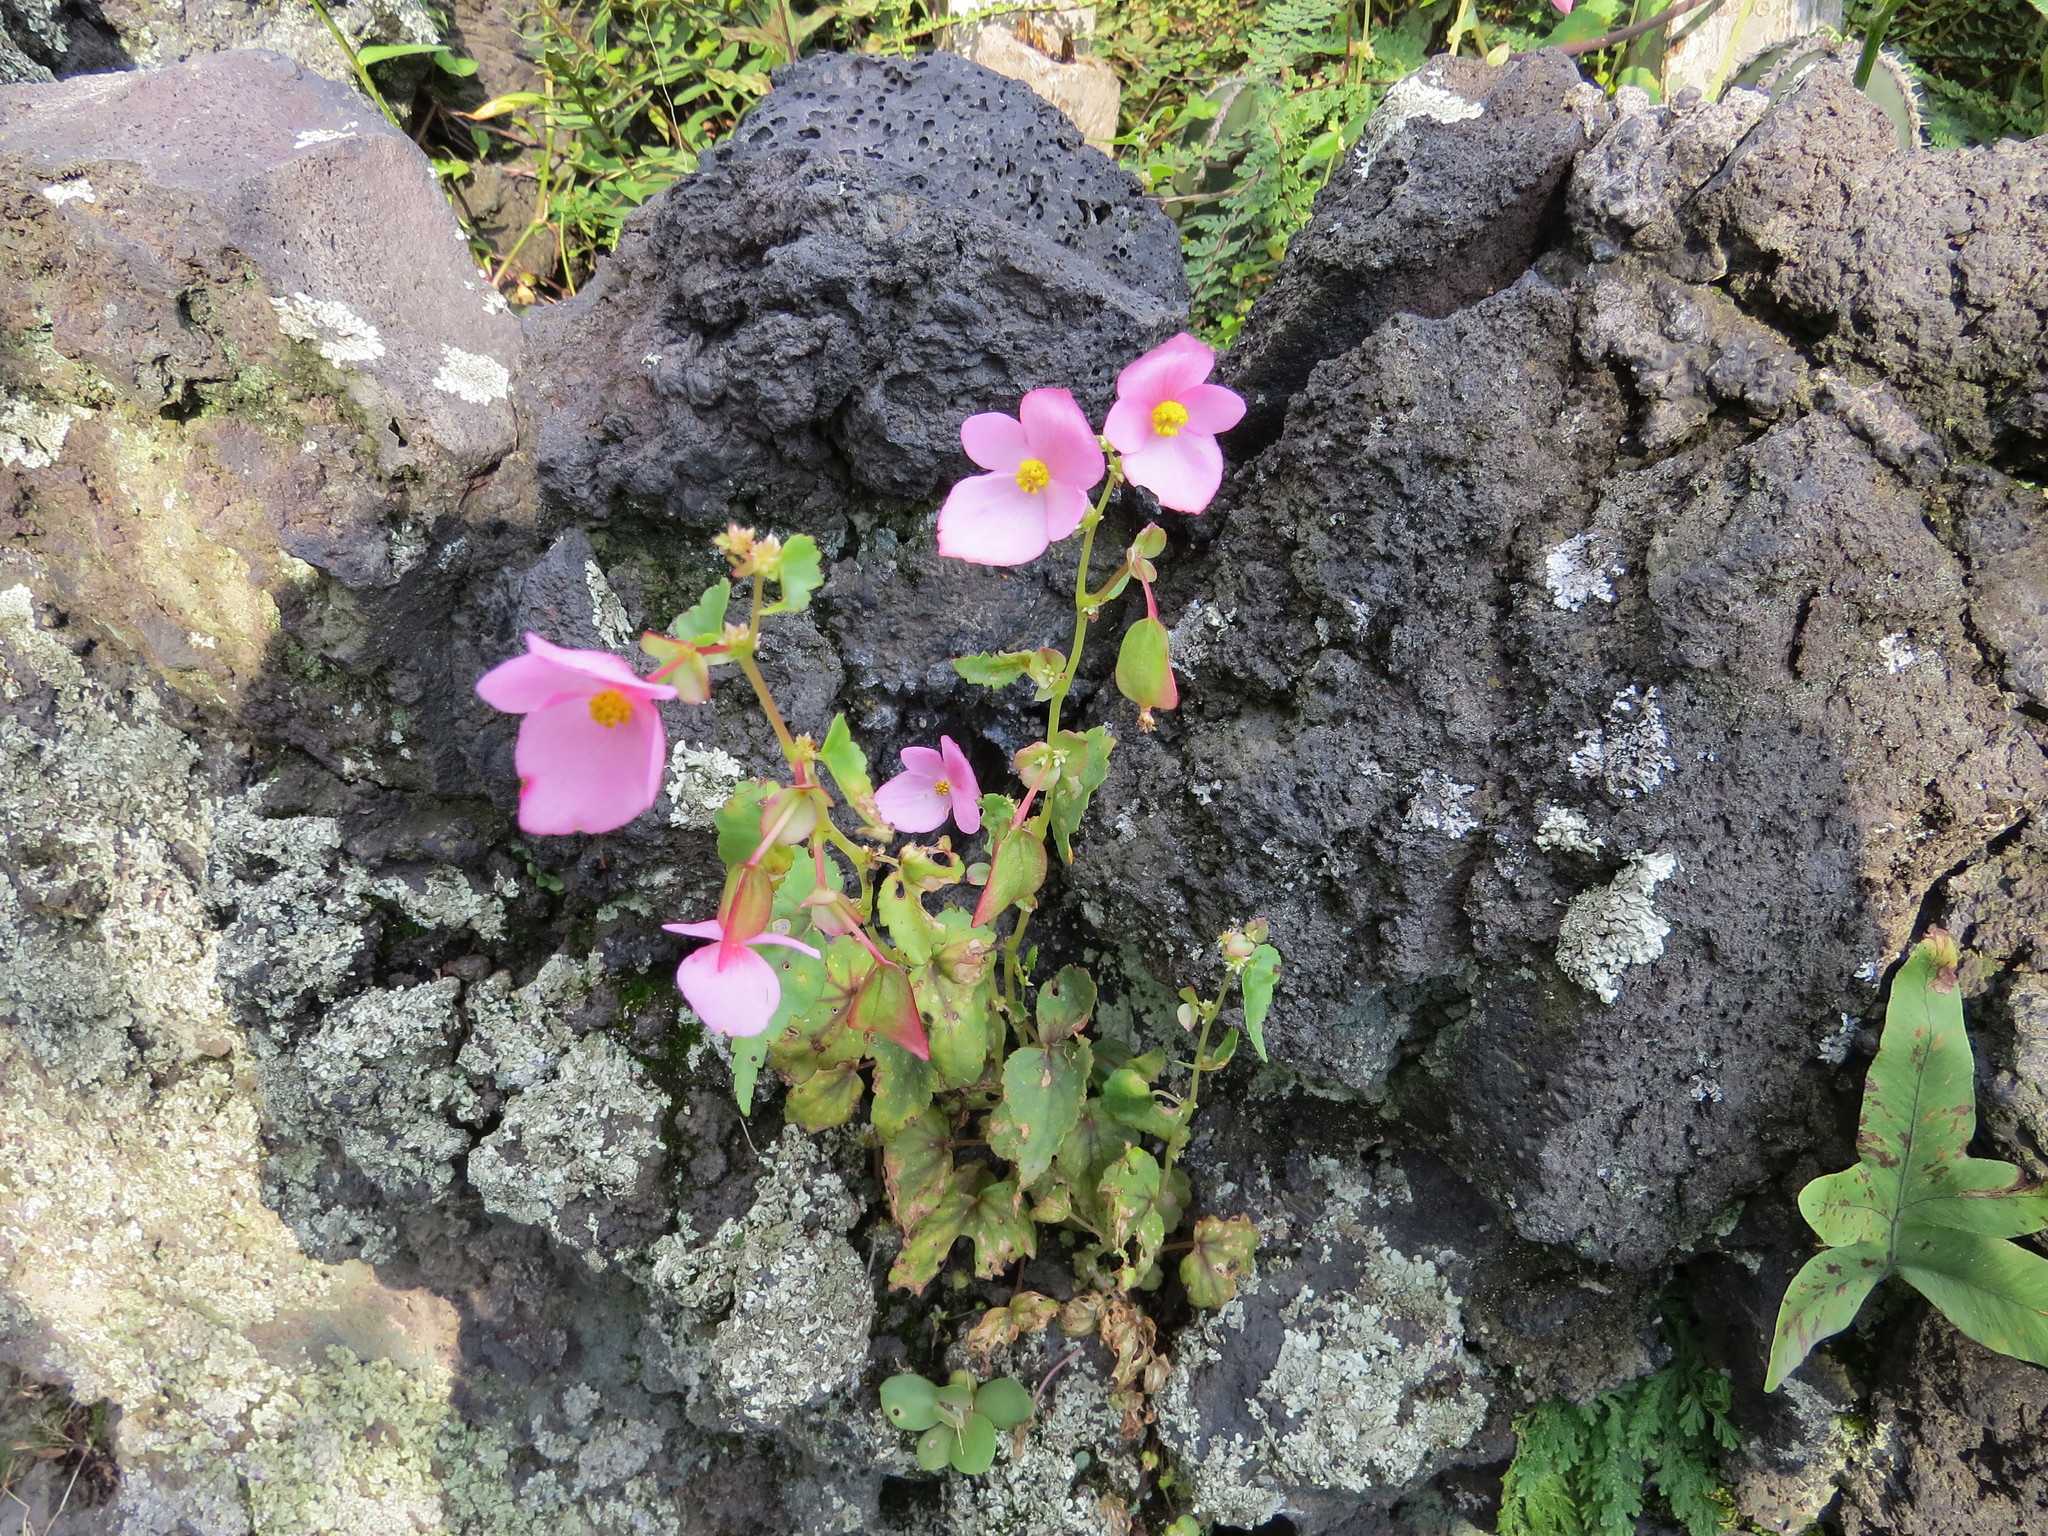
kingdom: Plantae
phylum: Tracheophyta
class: Magnoliopsida
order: Cucurbitales
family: Begoniaceae
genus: Begonia
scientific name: Begonia gracilis
